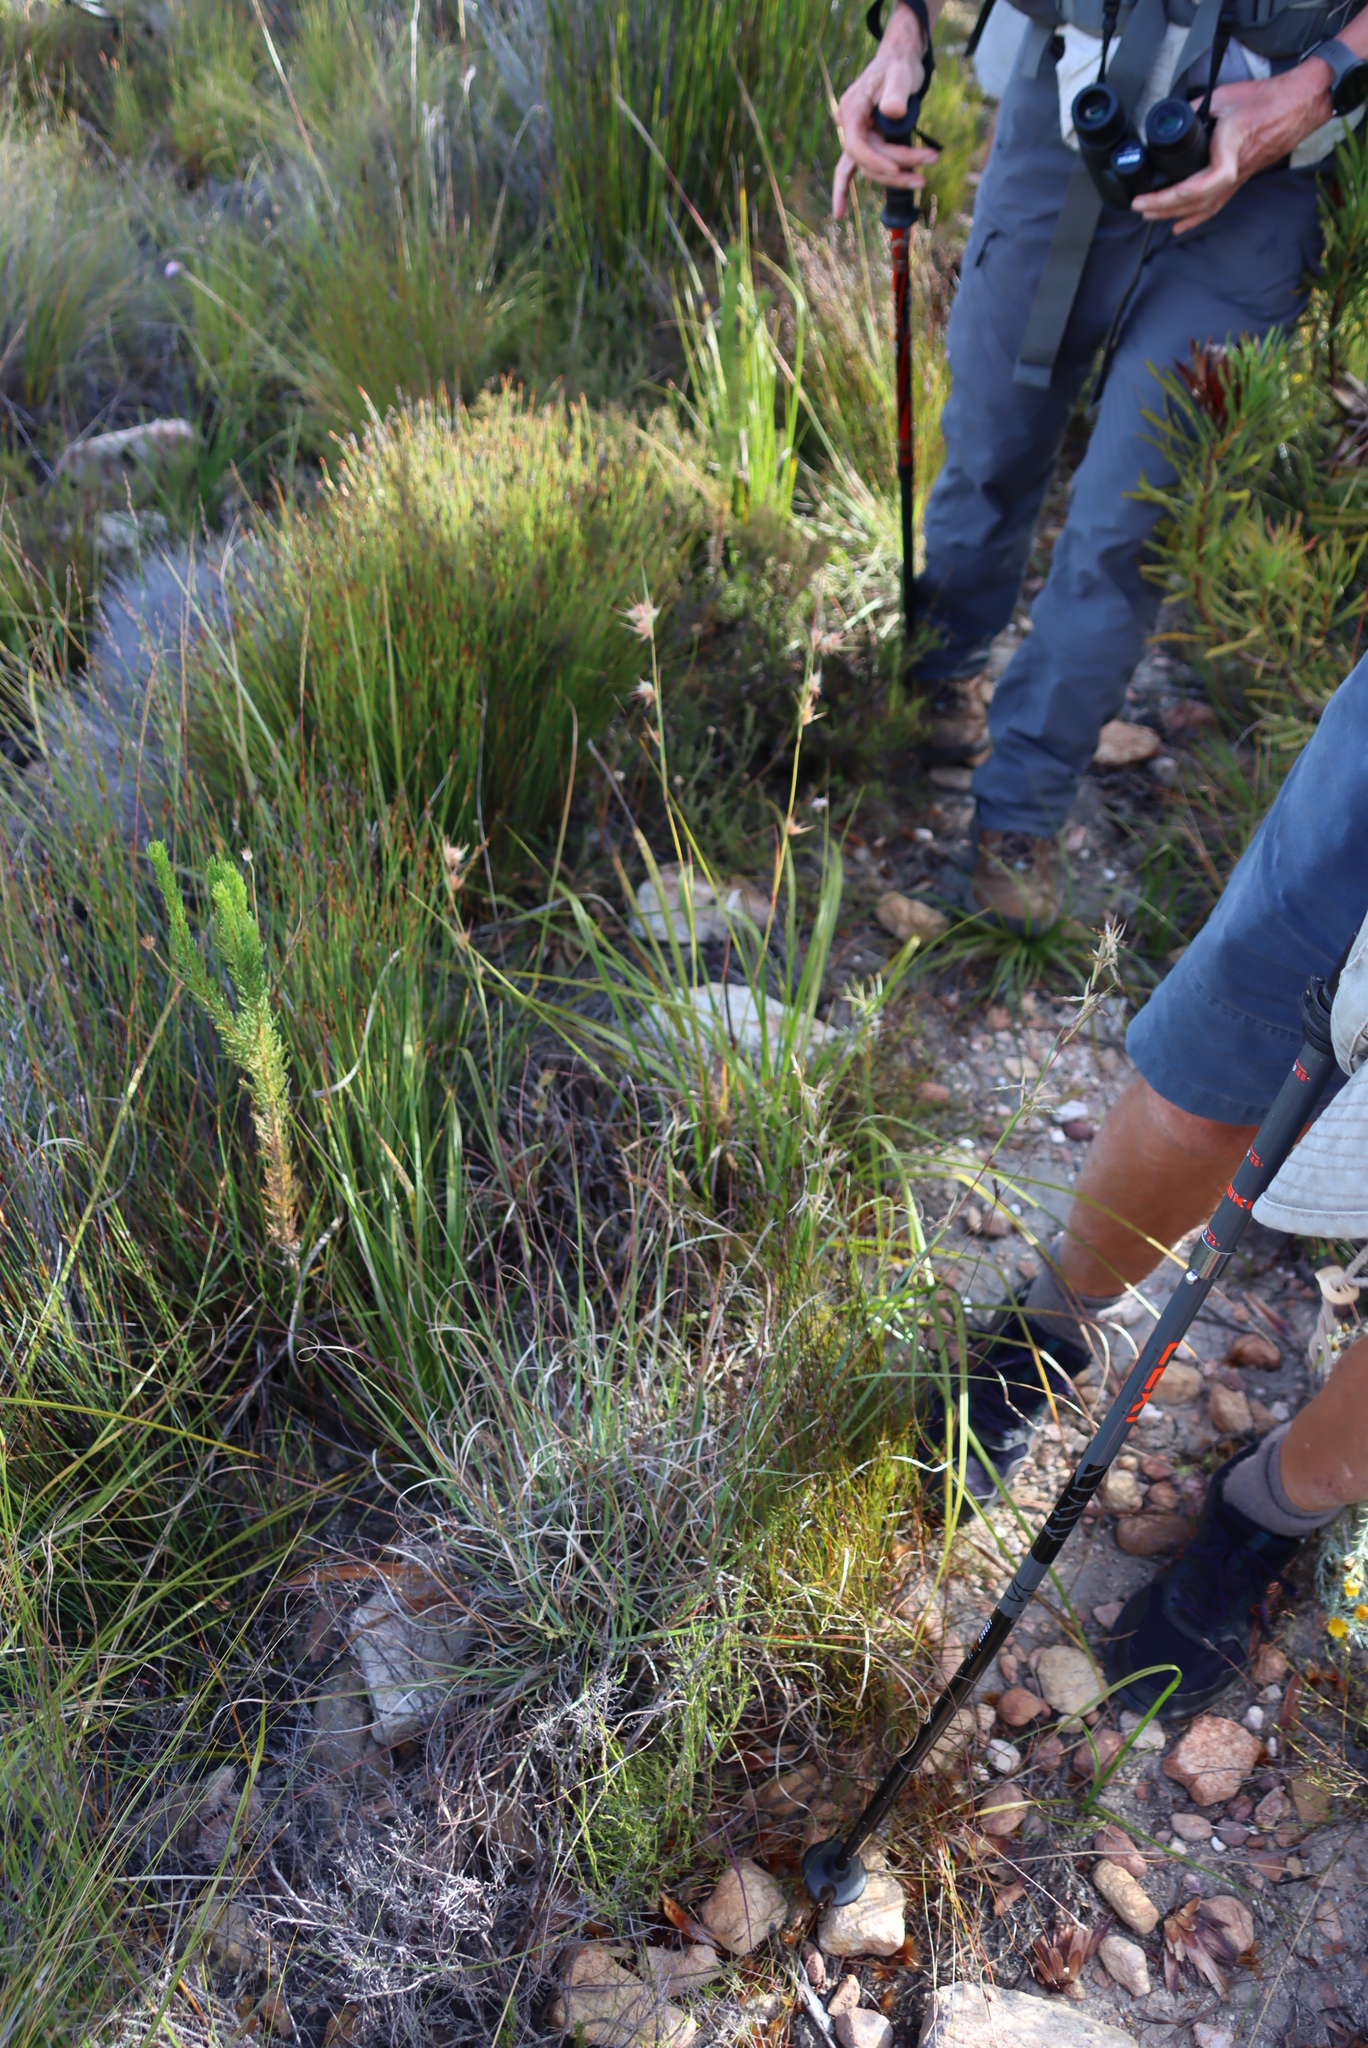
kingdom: Plantae
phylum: Tracheophyta
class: Liliopsida
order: Poales
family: Poaceae
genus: Themeda
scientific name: Themeda triandra
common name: Kangaroo grass
